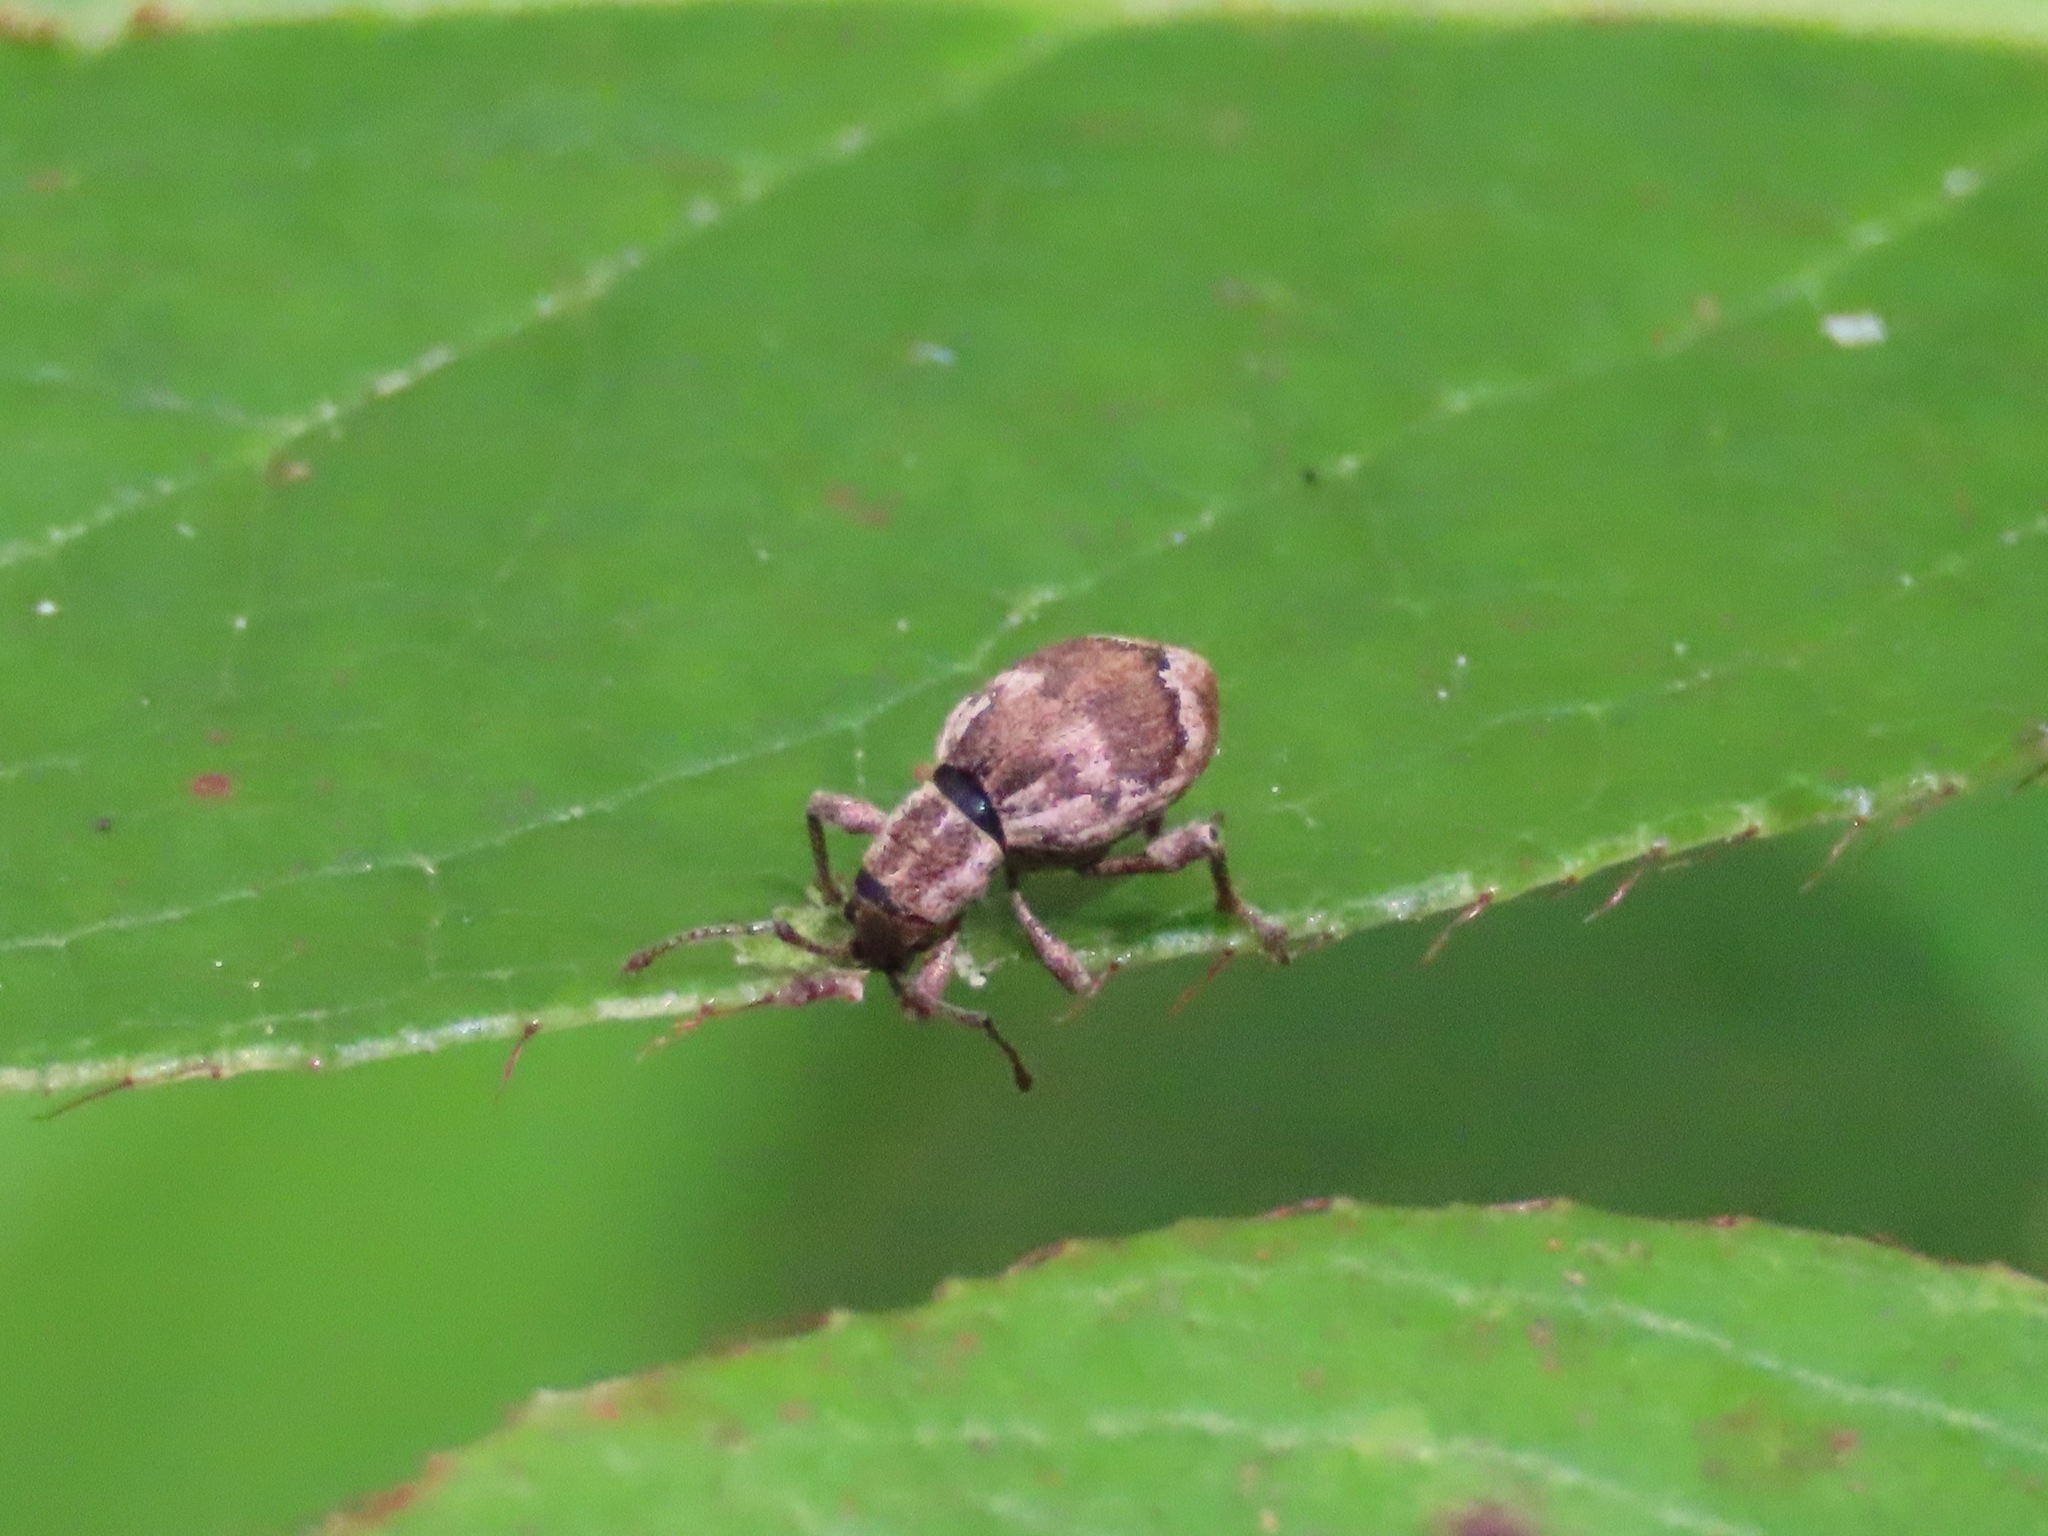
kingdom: Animalia
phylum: Arthropoda
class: Insecta
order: Coleoptera
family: Curculionidae
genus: Sciopithes
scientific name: Sciopithes obscurus
